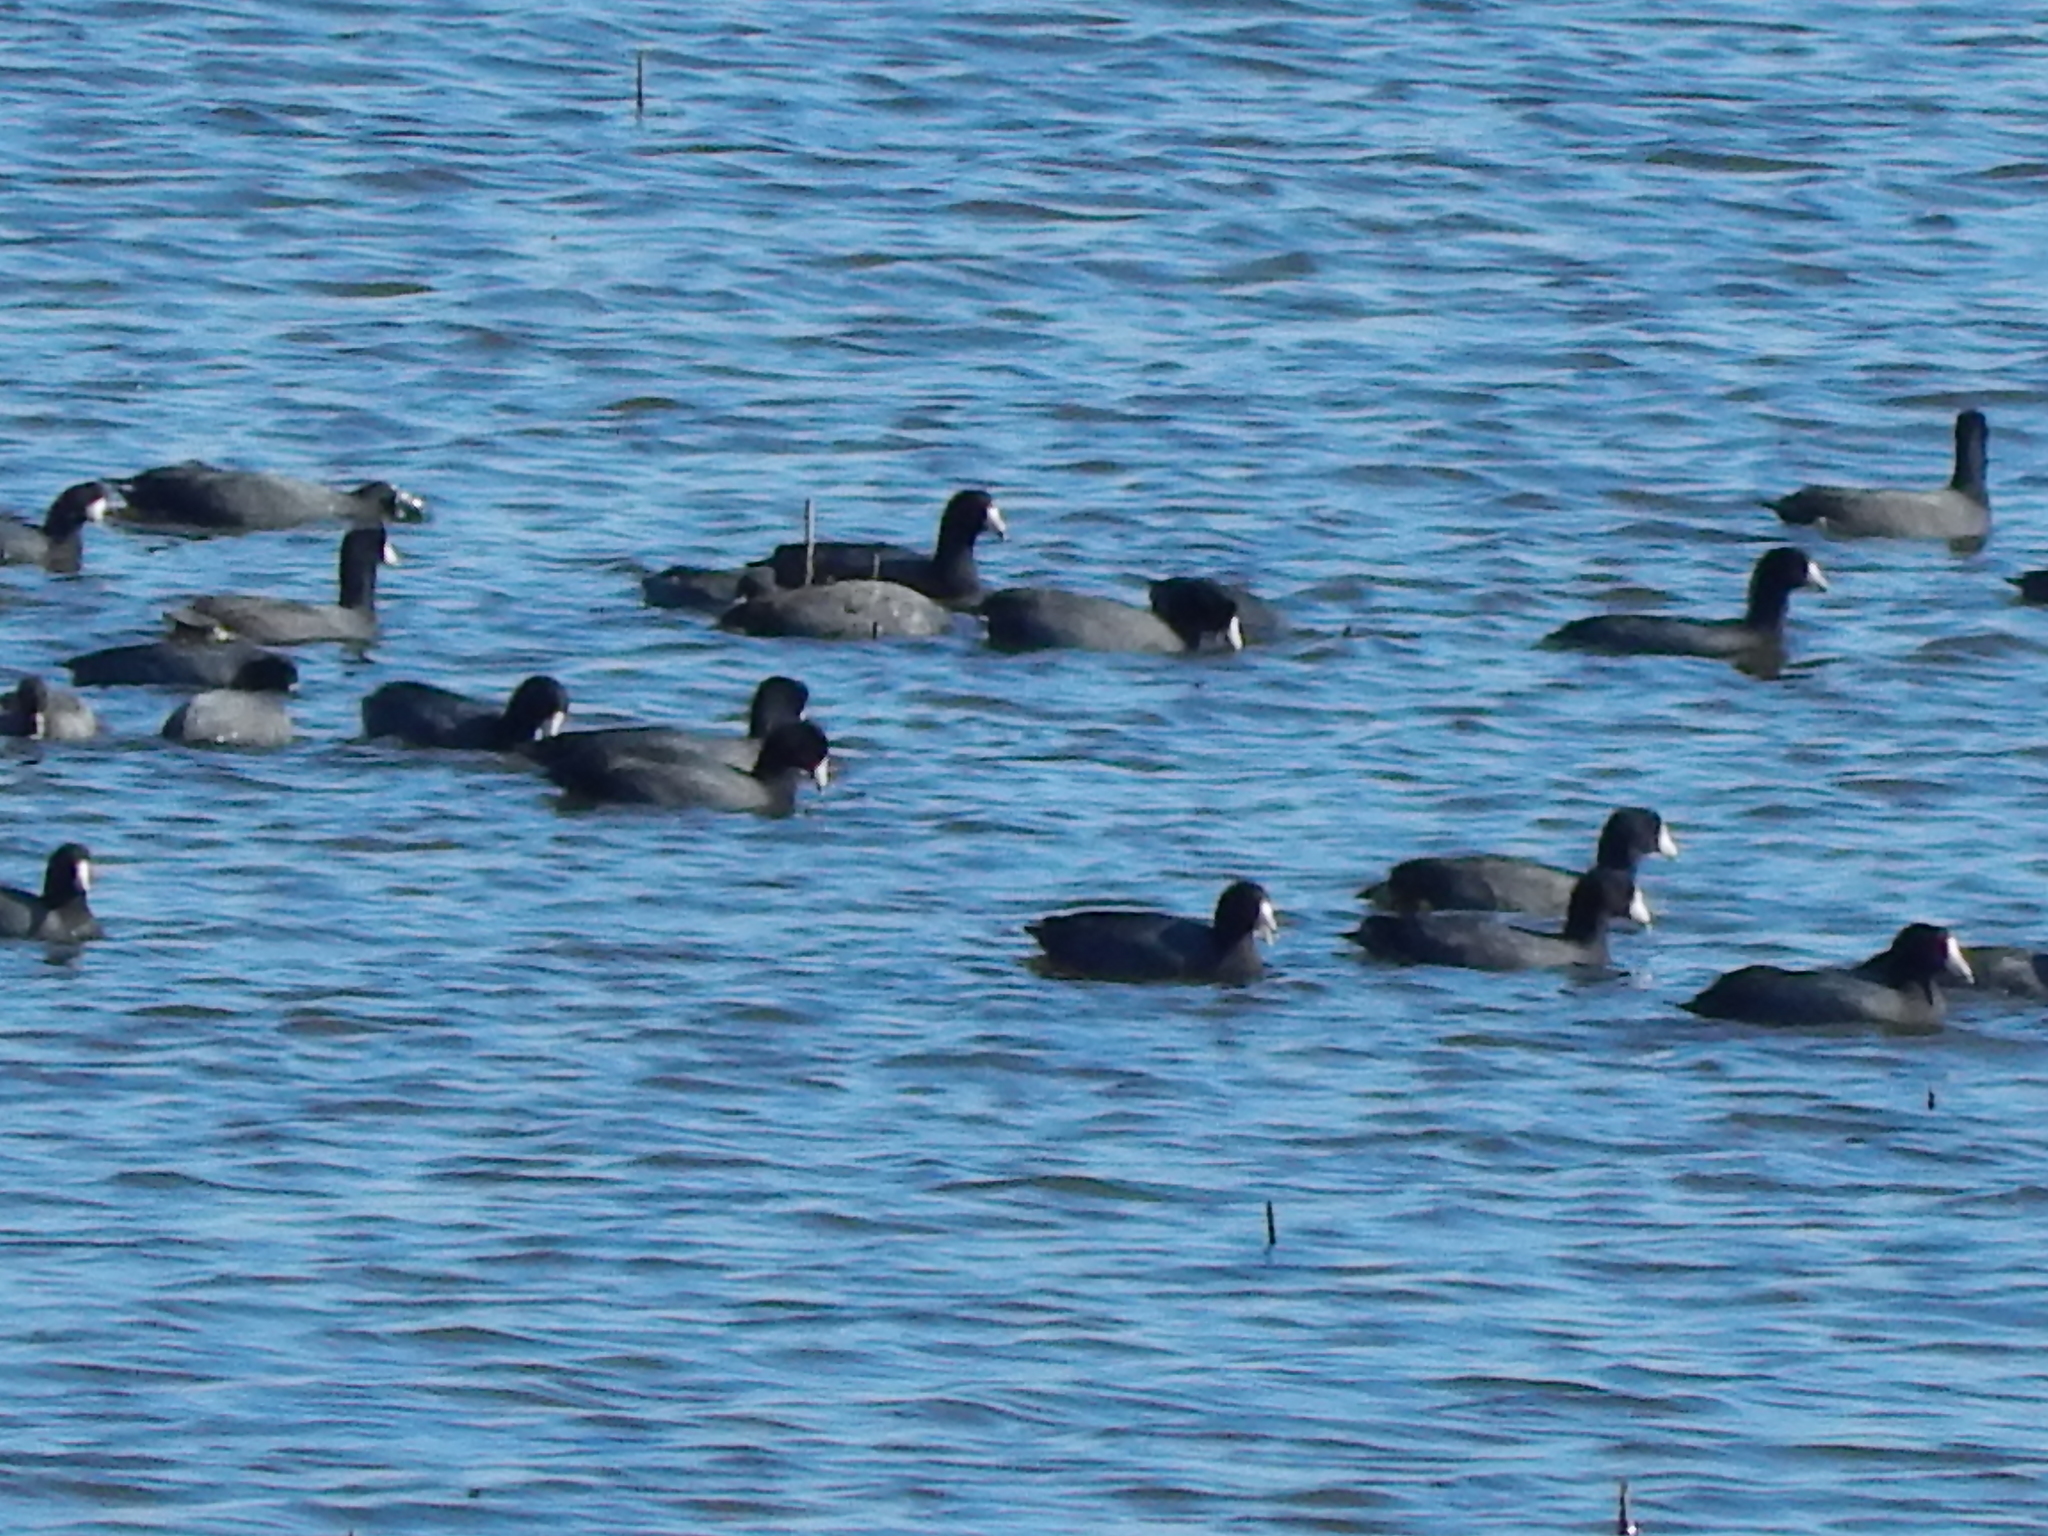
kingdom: Animalia
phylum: Chordata
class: Aves
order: Gruiformes
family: Rallidae
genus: Fulica
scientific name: Fulica americana
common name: American coot
